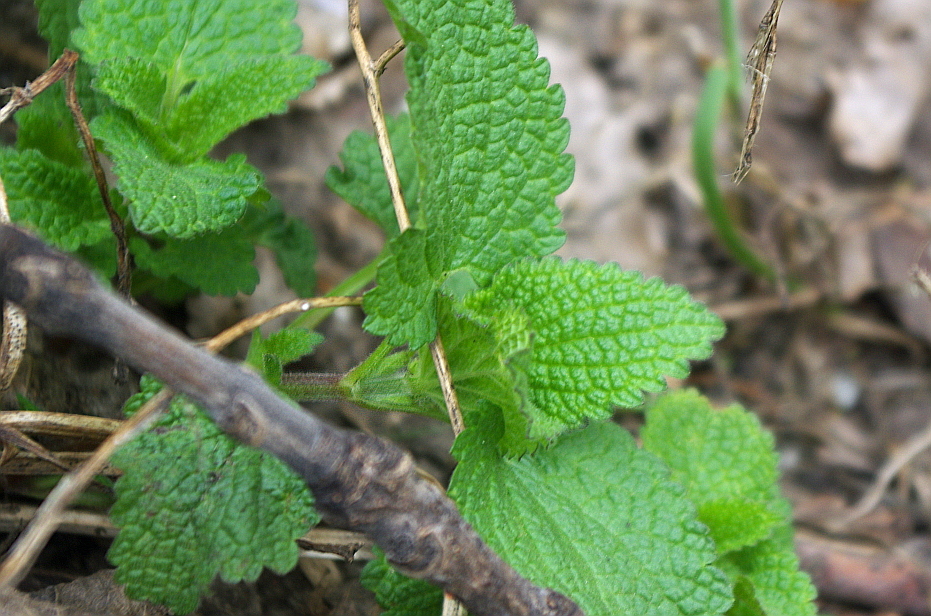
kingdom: Plantae
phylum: Tracheophyta
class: Magnoliopsida
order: Lamiales
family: Lamiaceae
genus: Lamium
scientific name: Lamium album
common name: White dead-nettle
